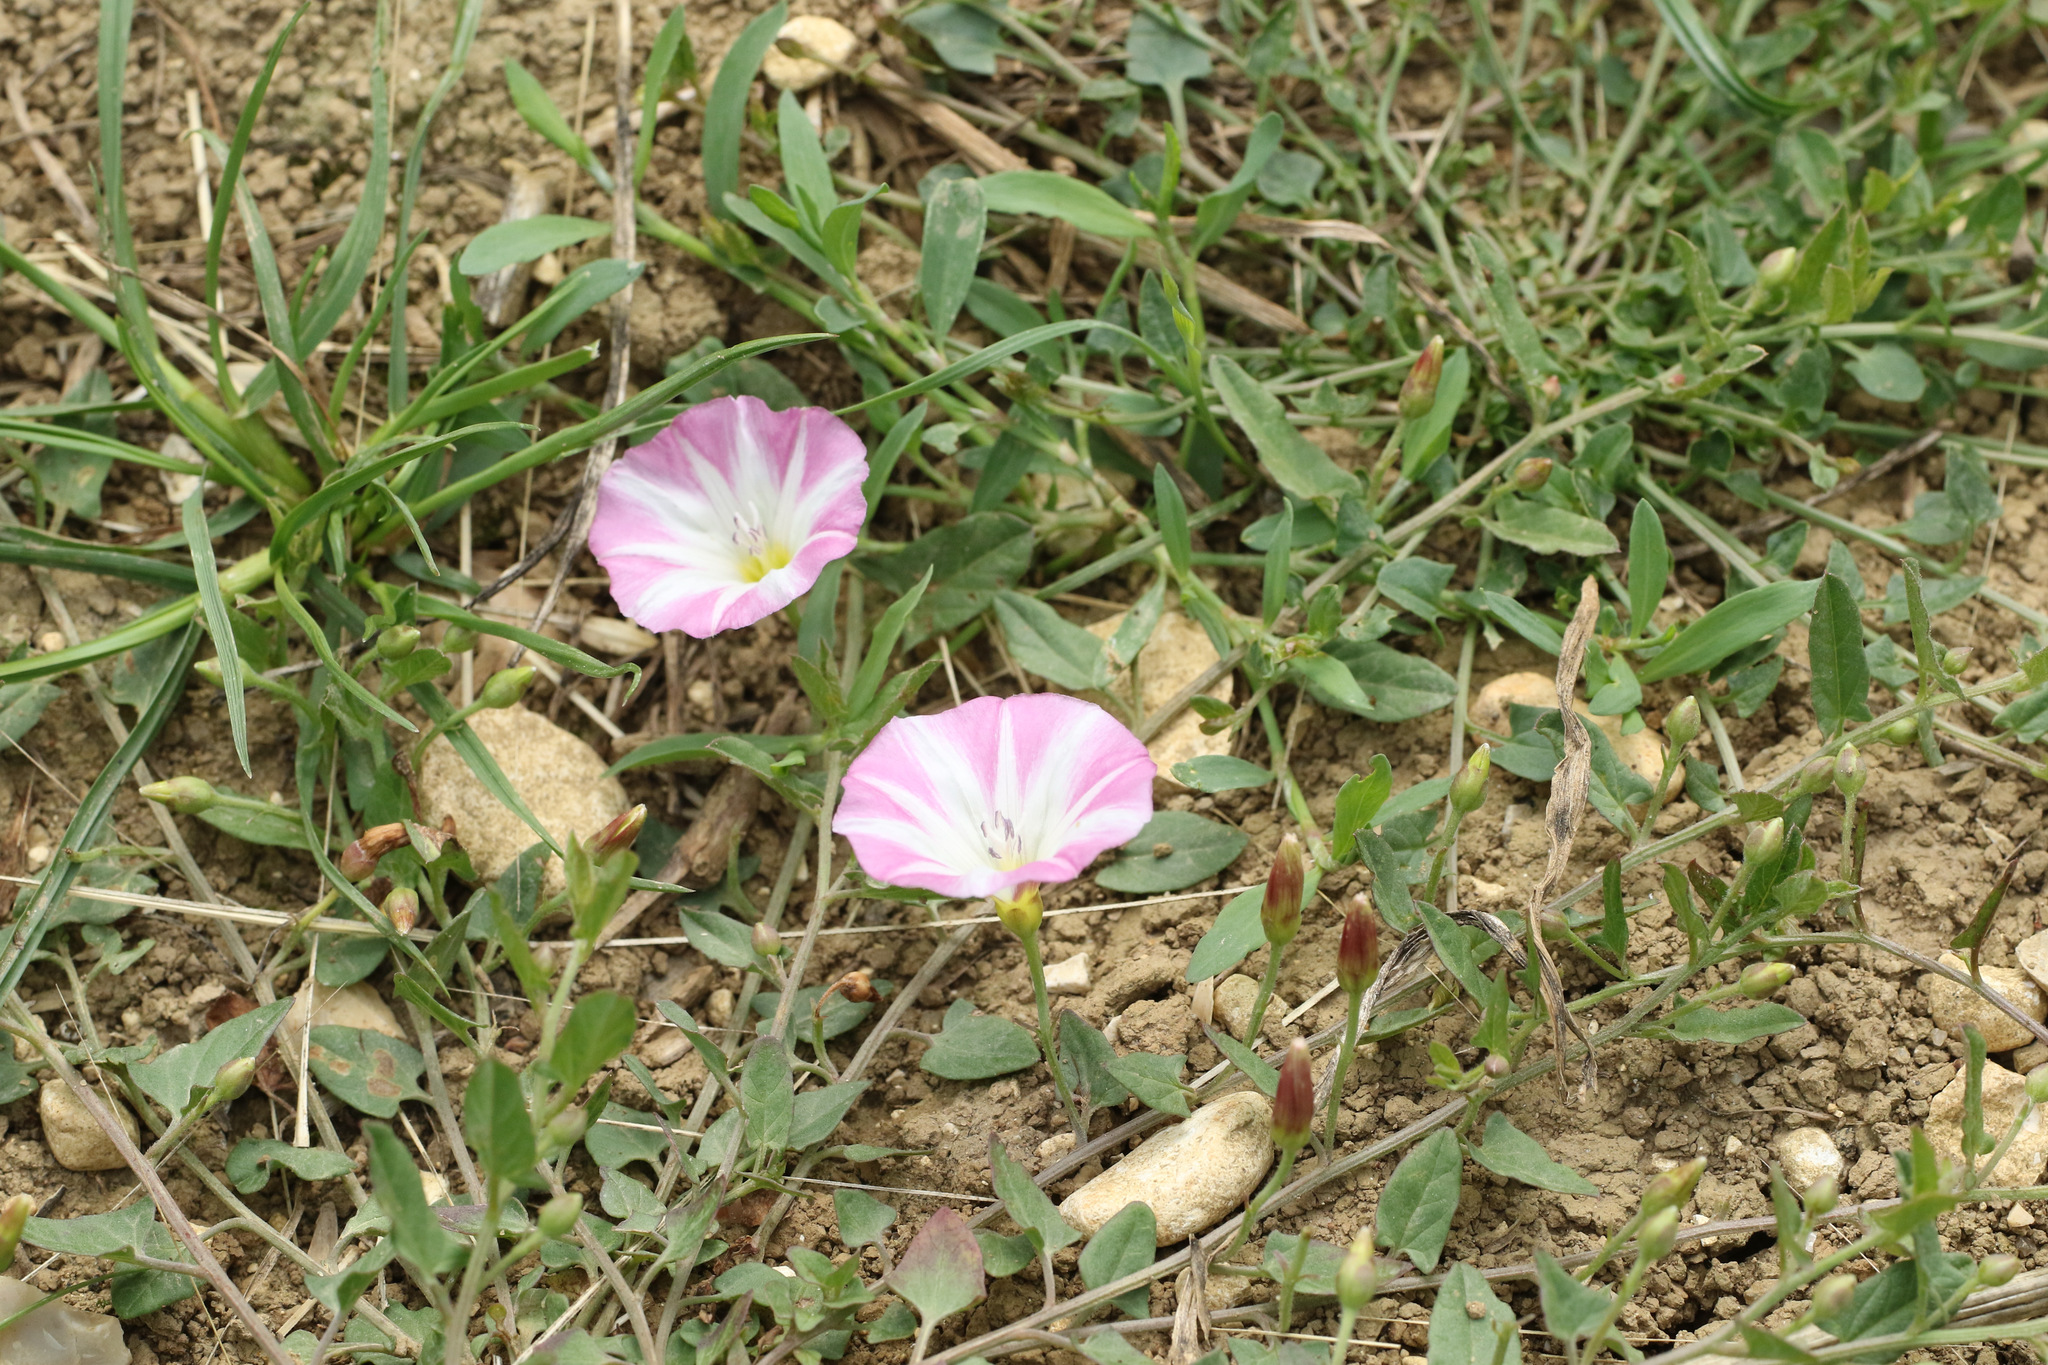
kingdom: Plantae
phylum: Tracheophyta
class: Magnoliopsida
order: Solanales
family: Convolvulaceae
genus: Convolvulus
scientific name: Convolvulus arvensis
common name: Field bindweed
